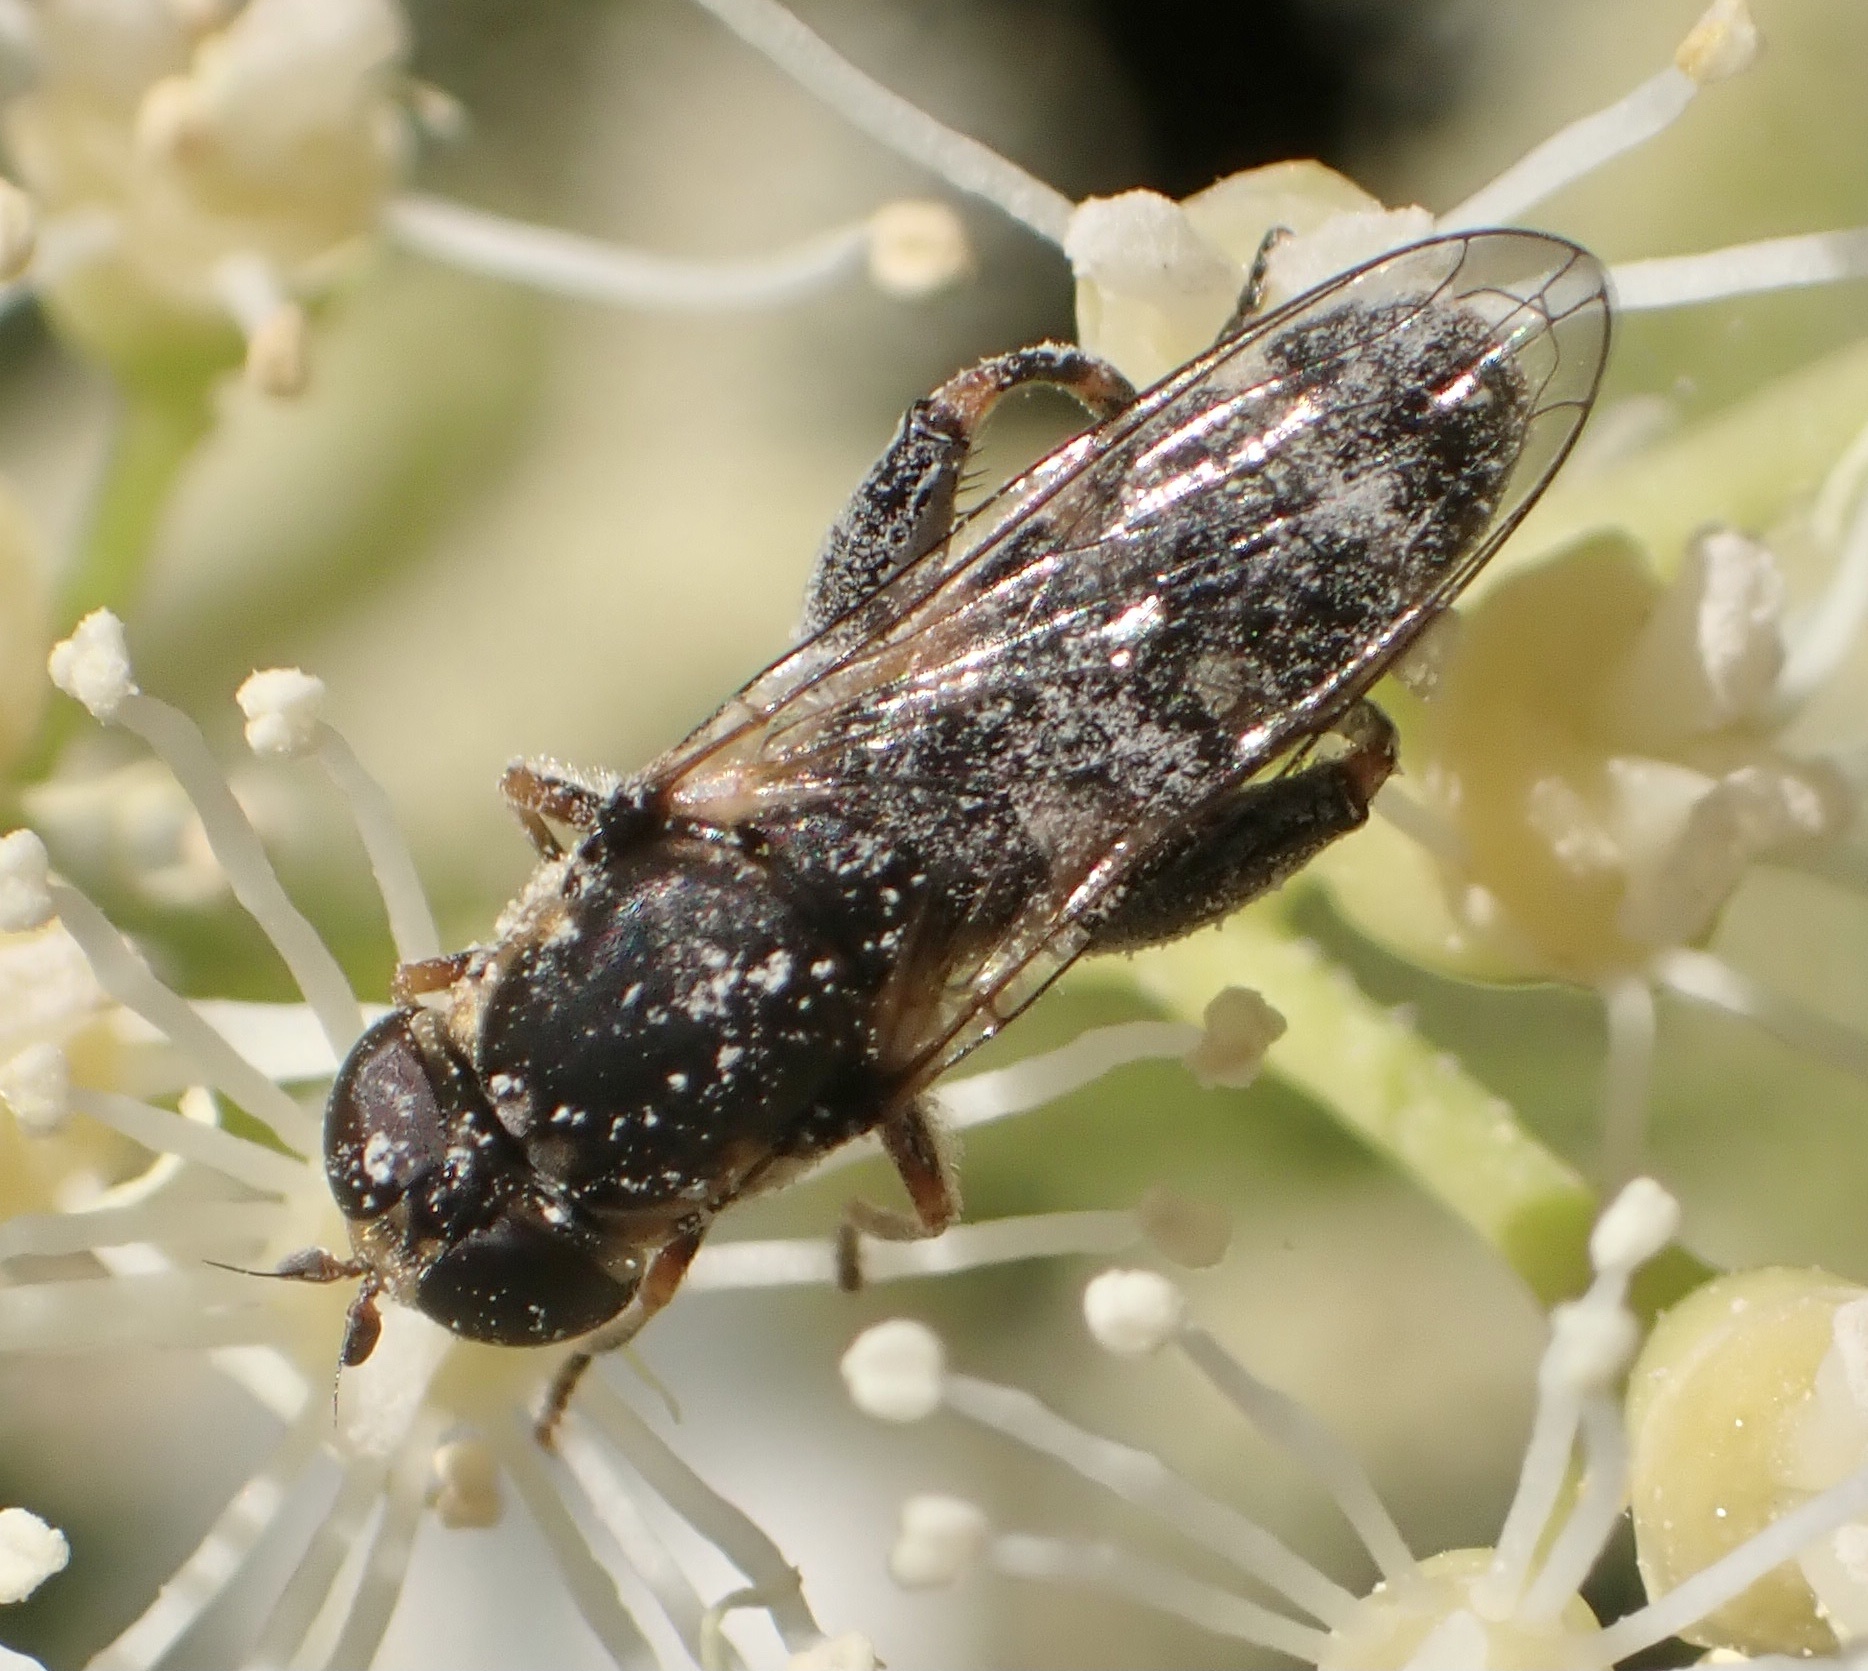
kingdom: Animalia
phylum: Arthropoda
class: Insecta
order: Diptera
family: Syrphidae
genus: Syritta
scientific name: Syritta pipiens
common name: Hover fly
